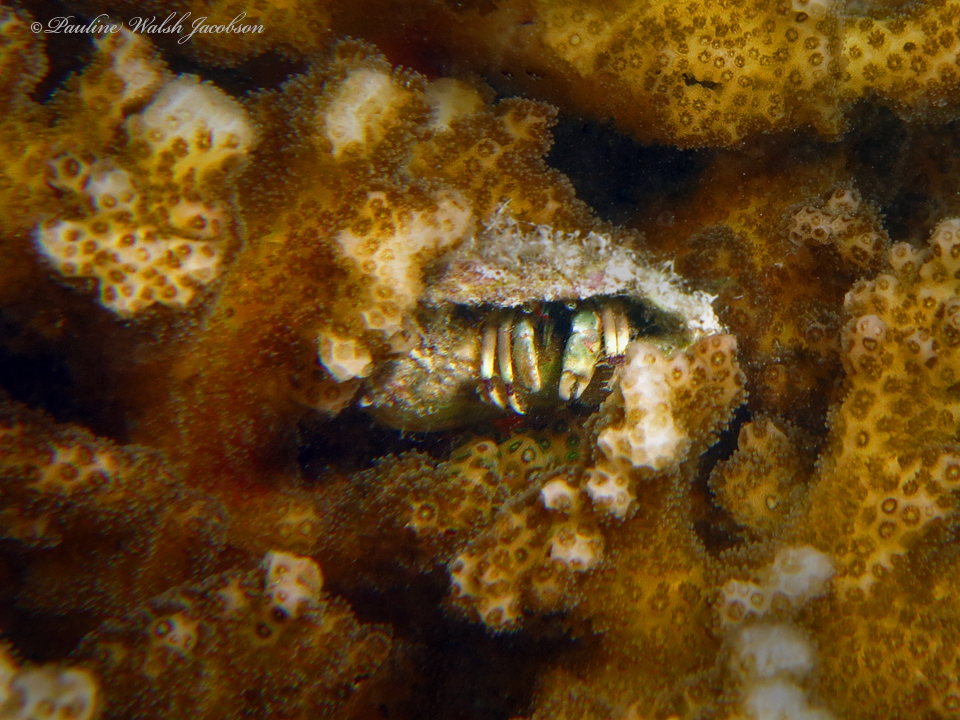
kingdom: Animalia
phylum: Arthropoda
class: Malacostraca
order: Decapoda
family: Diogenidae
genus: Calcinus
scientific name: Calcinus latens
